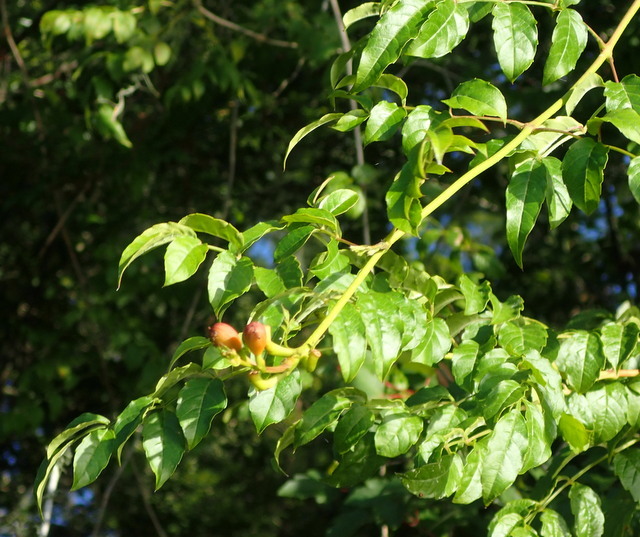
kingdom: Plantae
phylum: Tracheophyta
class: Magnoliopsida
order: Lamiales
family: Bignoniaceae
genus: Campsis
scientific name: Campsis radicans
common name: Trumpet-creeper
